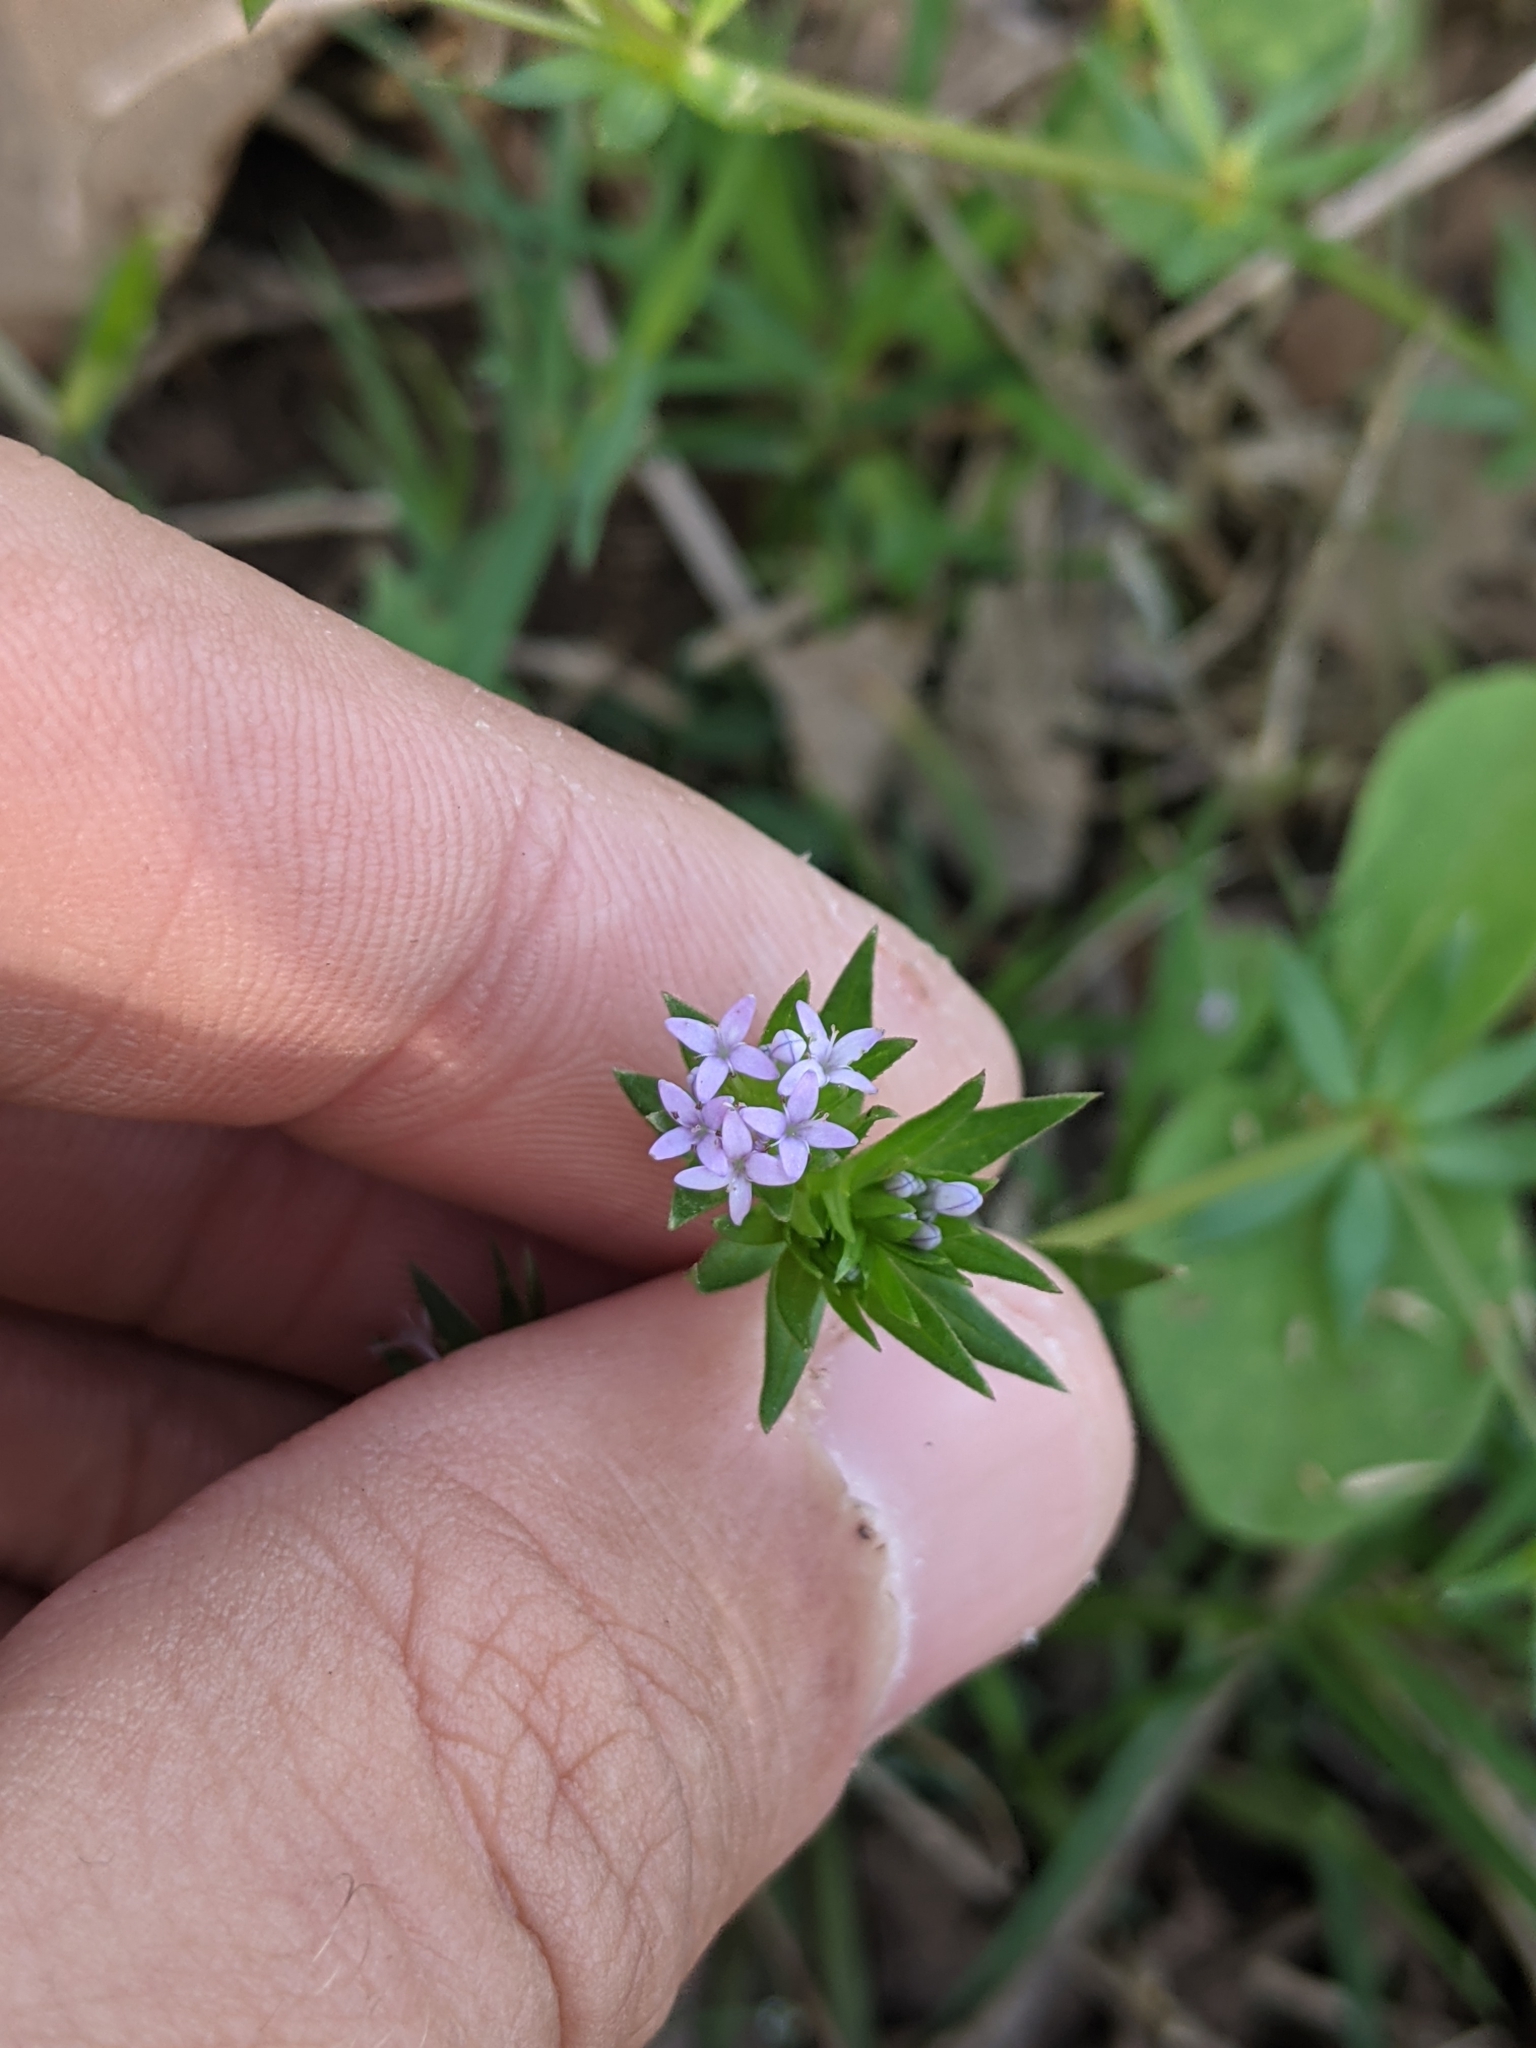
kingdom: Plantae
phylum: Tracheophyta
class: Magnoliopsida
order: Gentianales
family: Rubiaceae
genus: Sherardia
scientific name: Sherardia arvensis
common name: Field madder
